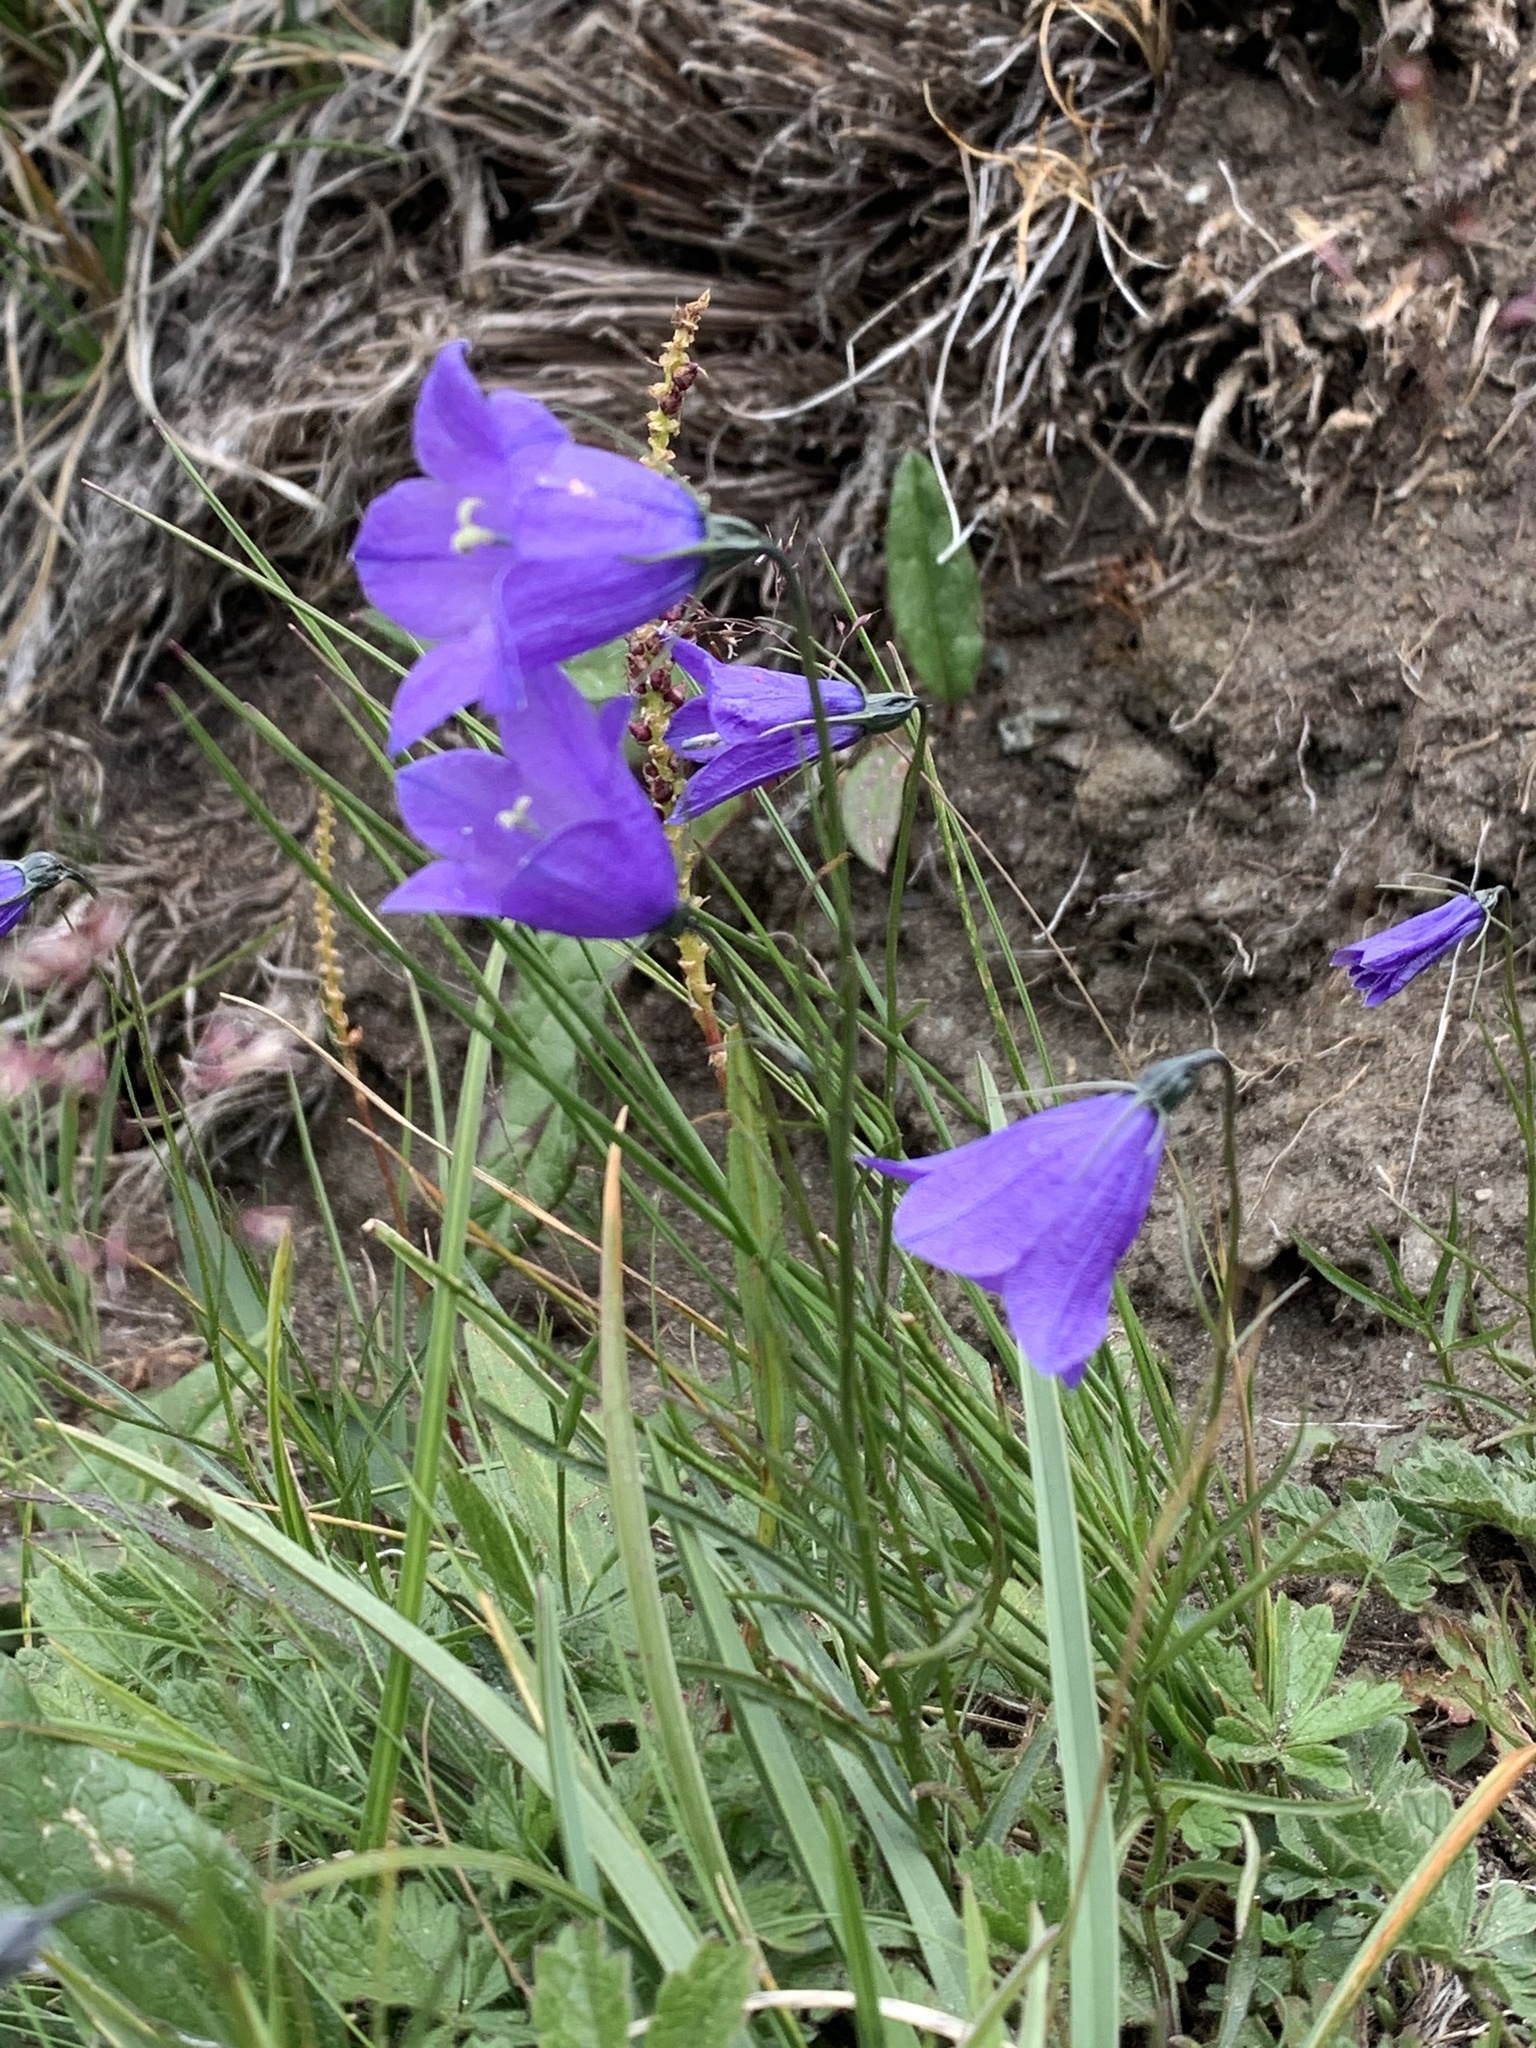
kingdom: Plantae
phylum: Tracheophyta
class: Magnoliopsida
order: Asterales
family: Campanulaceae
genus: Campanula
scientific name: Campanula scheuchzeri
